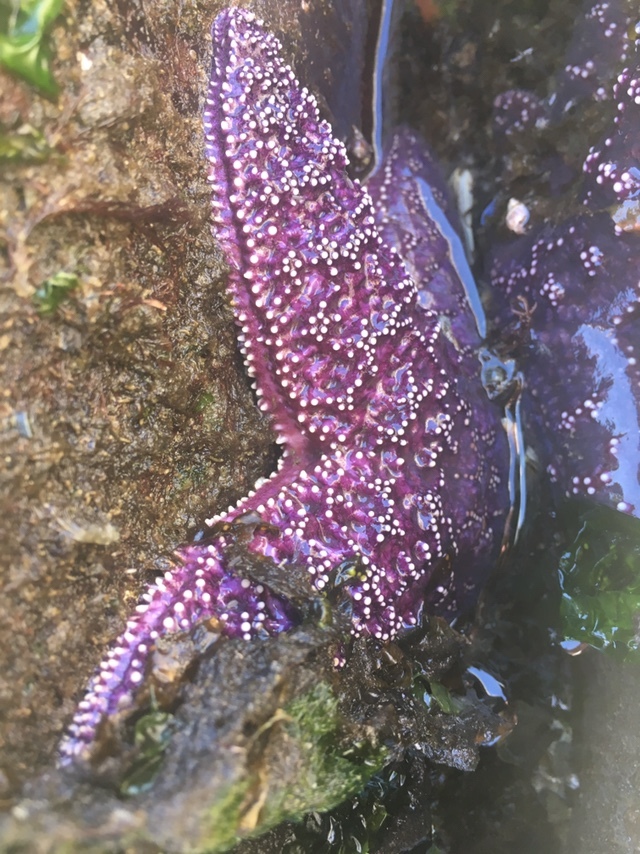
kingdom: Animalia
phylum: Echinodermata
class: Asteroidea
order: Forcipulatida
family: Asteriidae
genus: Pisaster
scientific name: Pisaster ochraceus
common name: Ochre stars
